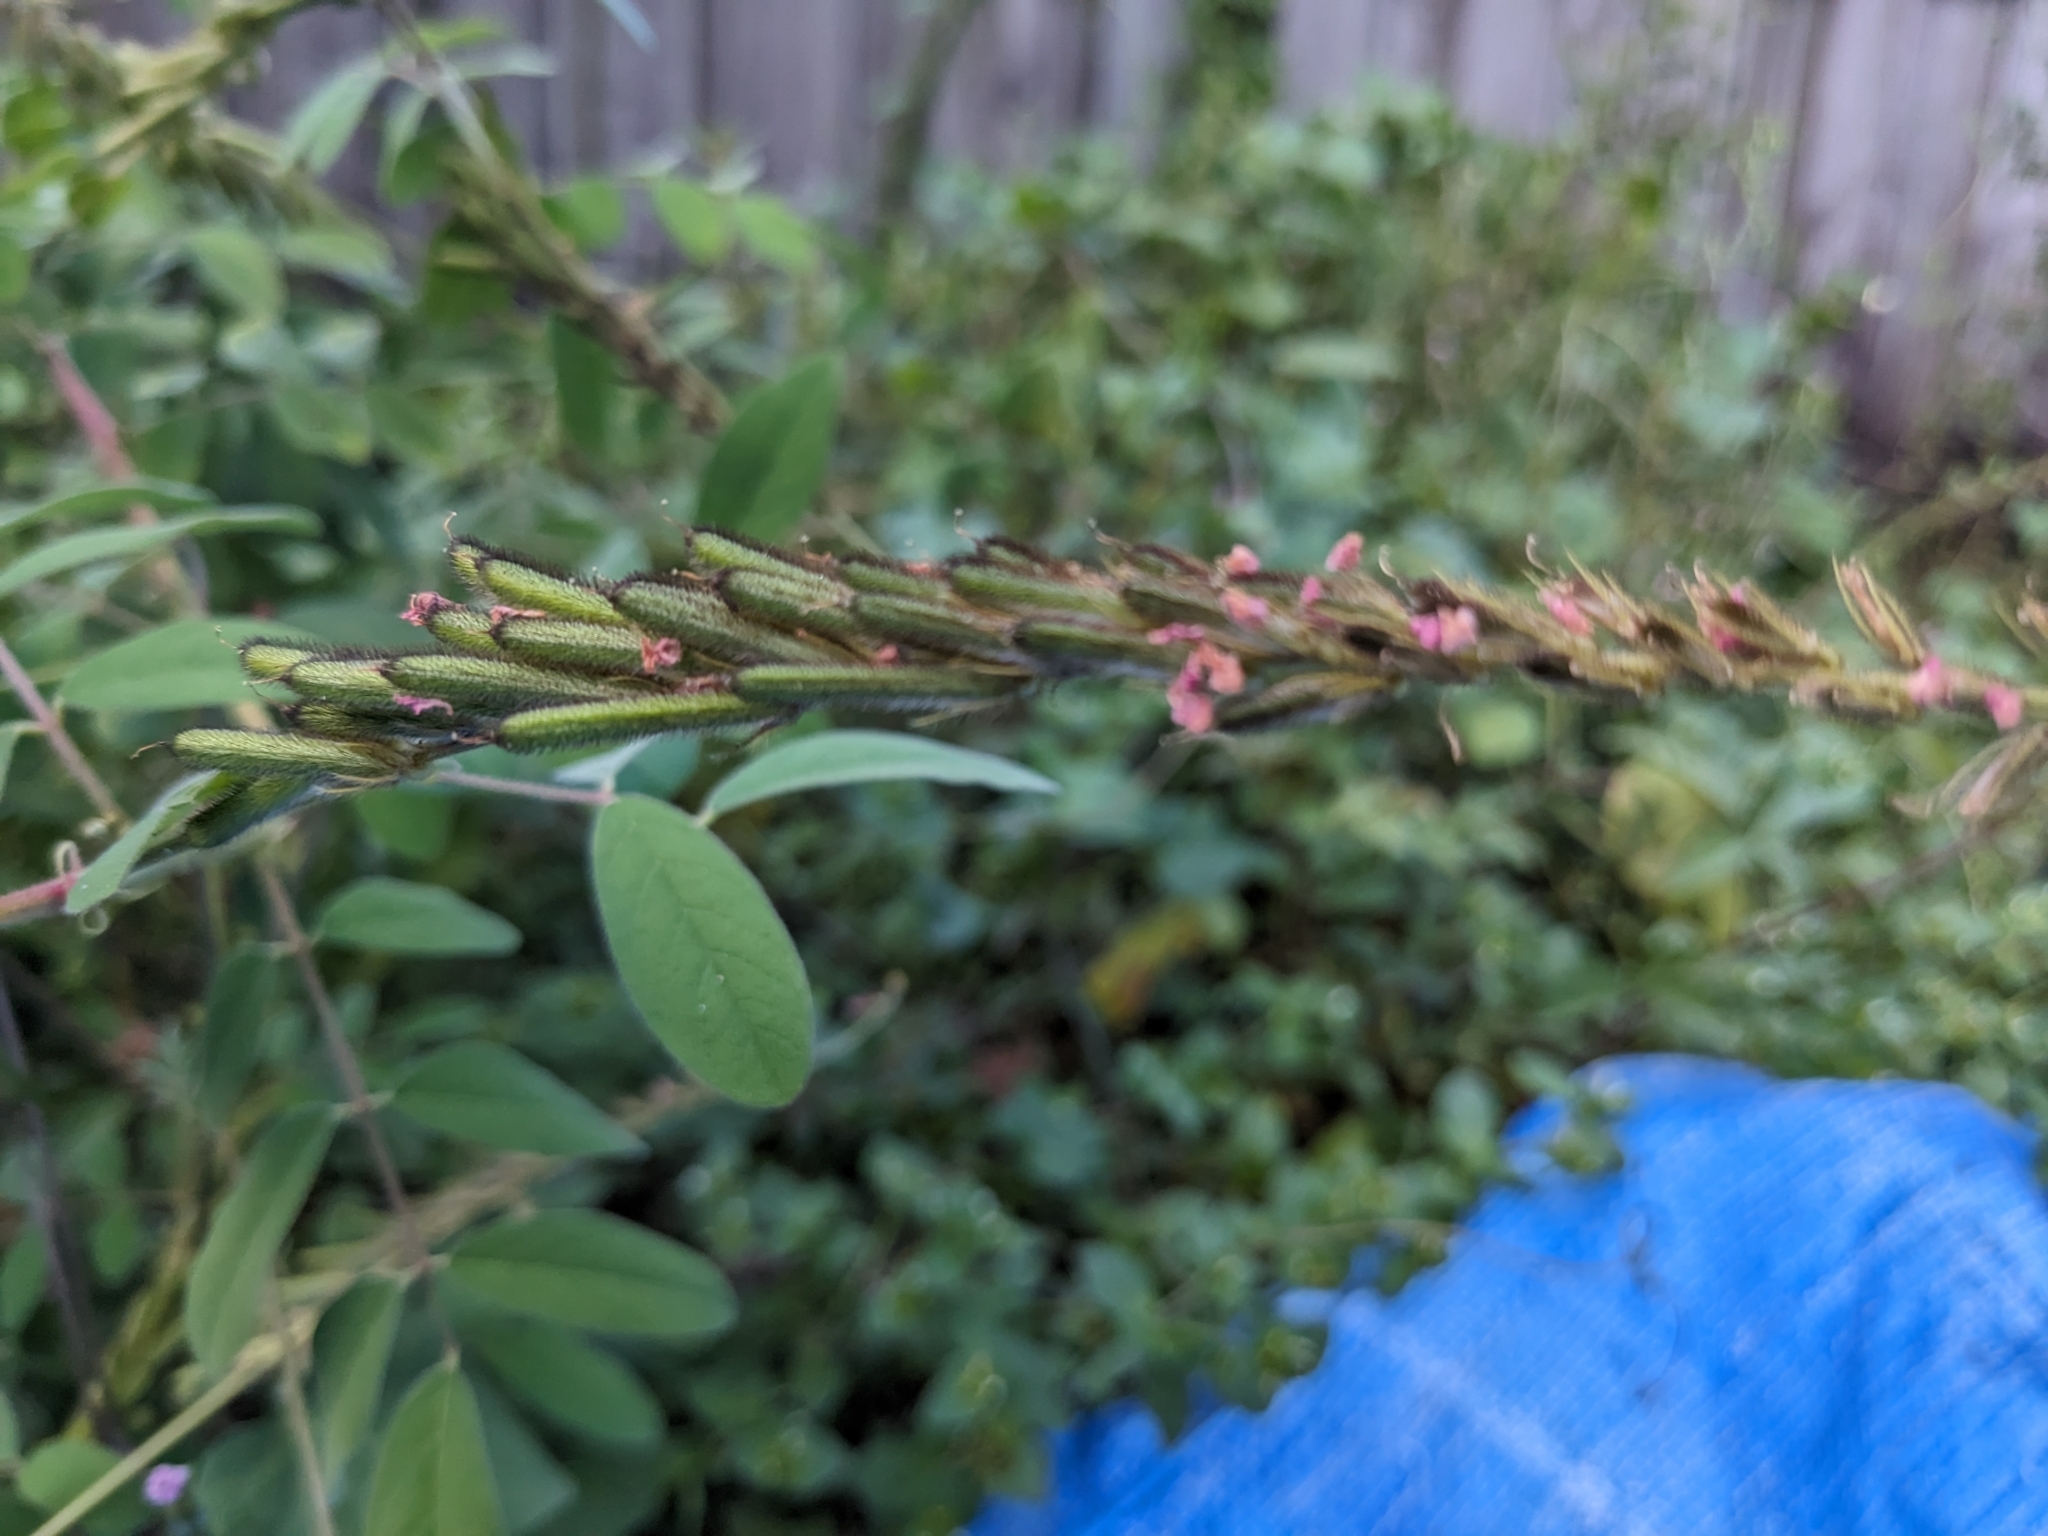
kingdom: Plantae
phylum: Tracheophyta
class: Magnoliopsida
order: Fabales
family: Fabaceae
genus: Indigofera
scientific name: Indigofera hirsuta
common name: Hairy indigo
